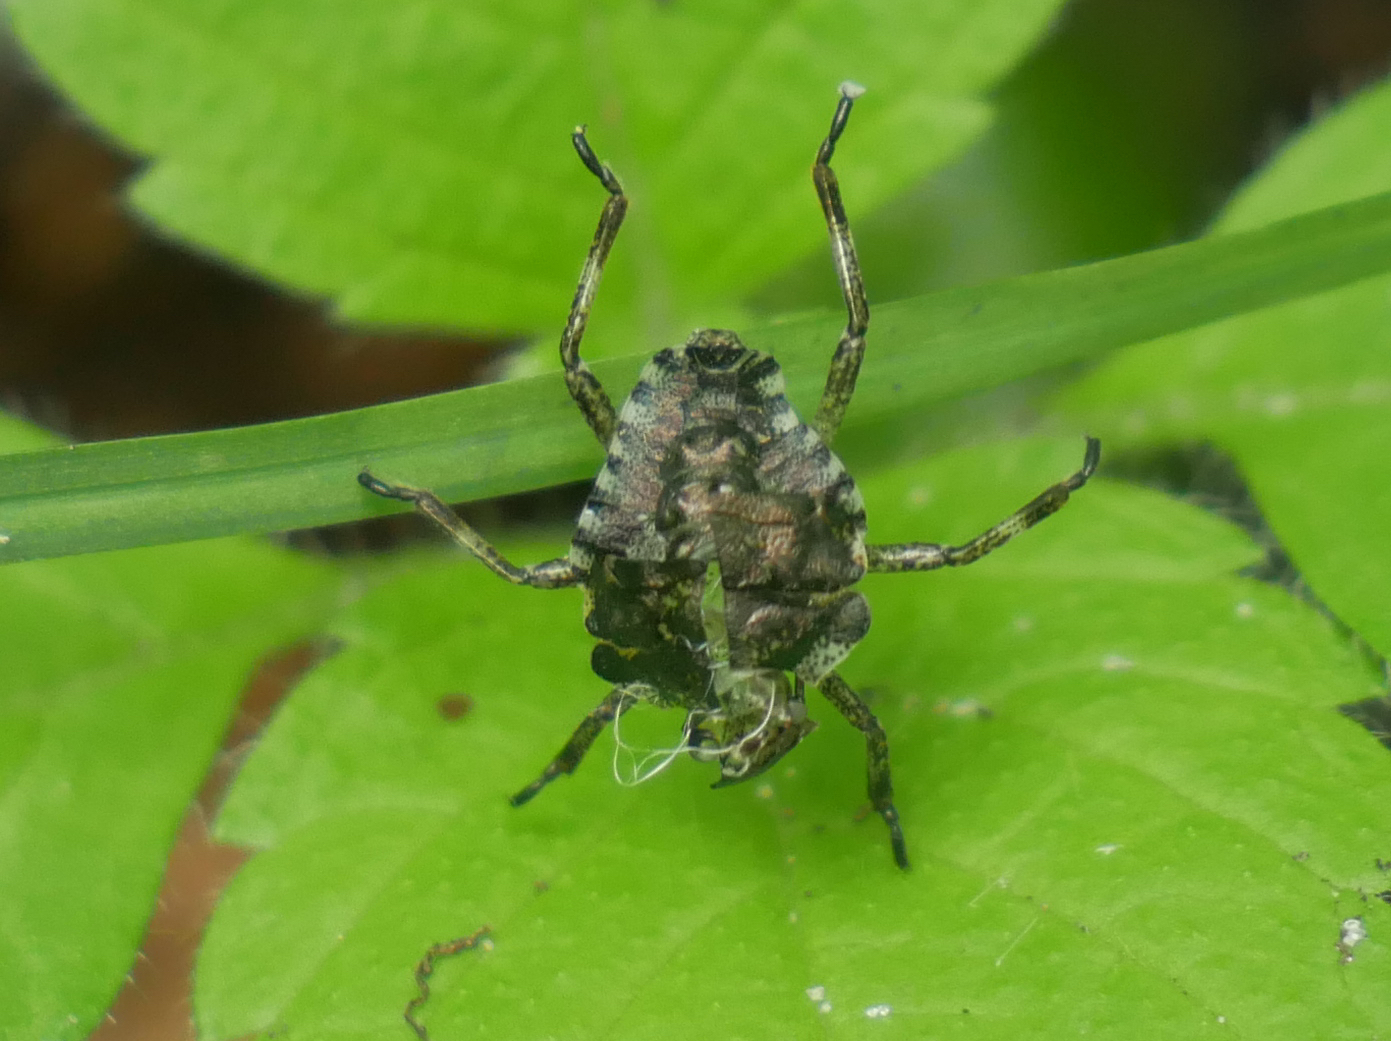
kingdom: Animalia
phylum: Arthropoda
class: Insecta
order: Hemiptera
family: Pentatomidae
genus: Pentatoma
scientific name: Pentatoma rufipes
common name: Forest bug
